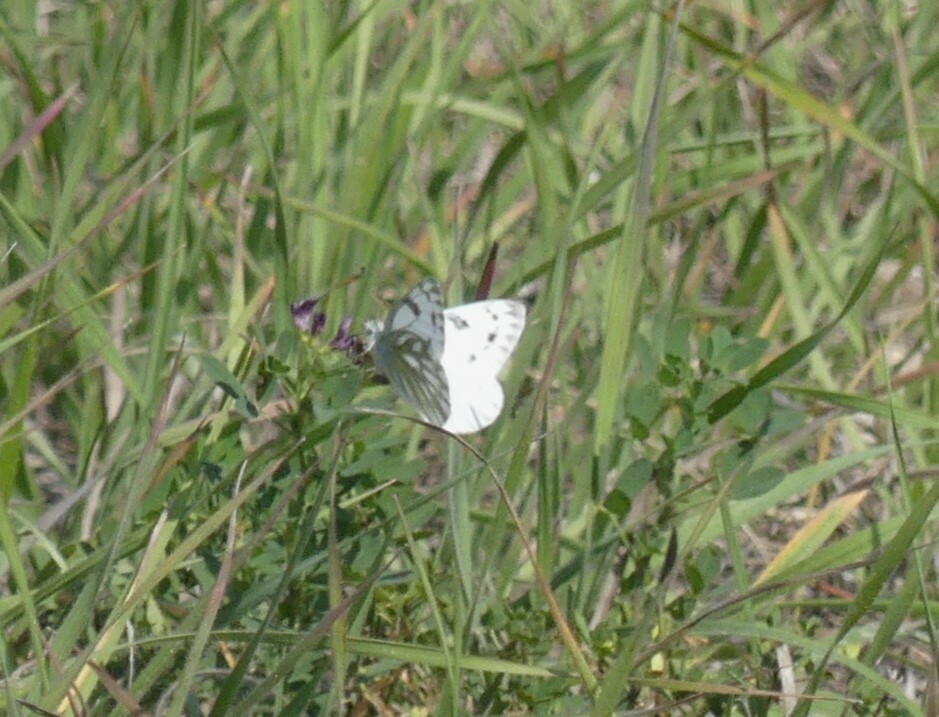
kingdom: Animalia
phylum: Arthropoda
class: Insecta
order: Lepidoptera
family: Pieridae
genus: Pontia
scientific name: Pontia occidentalis
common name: Western white
